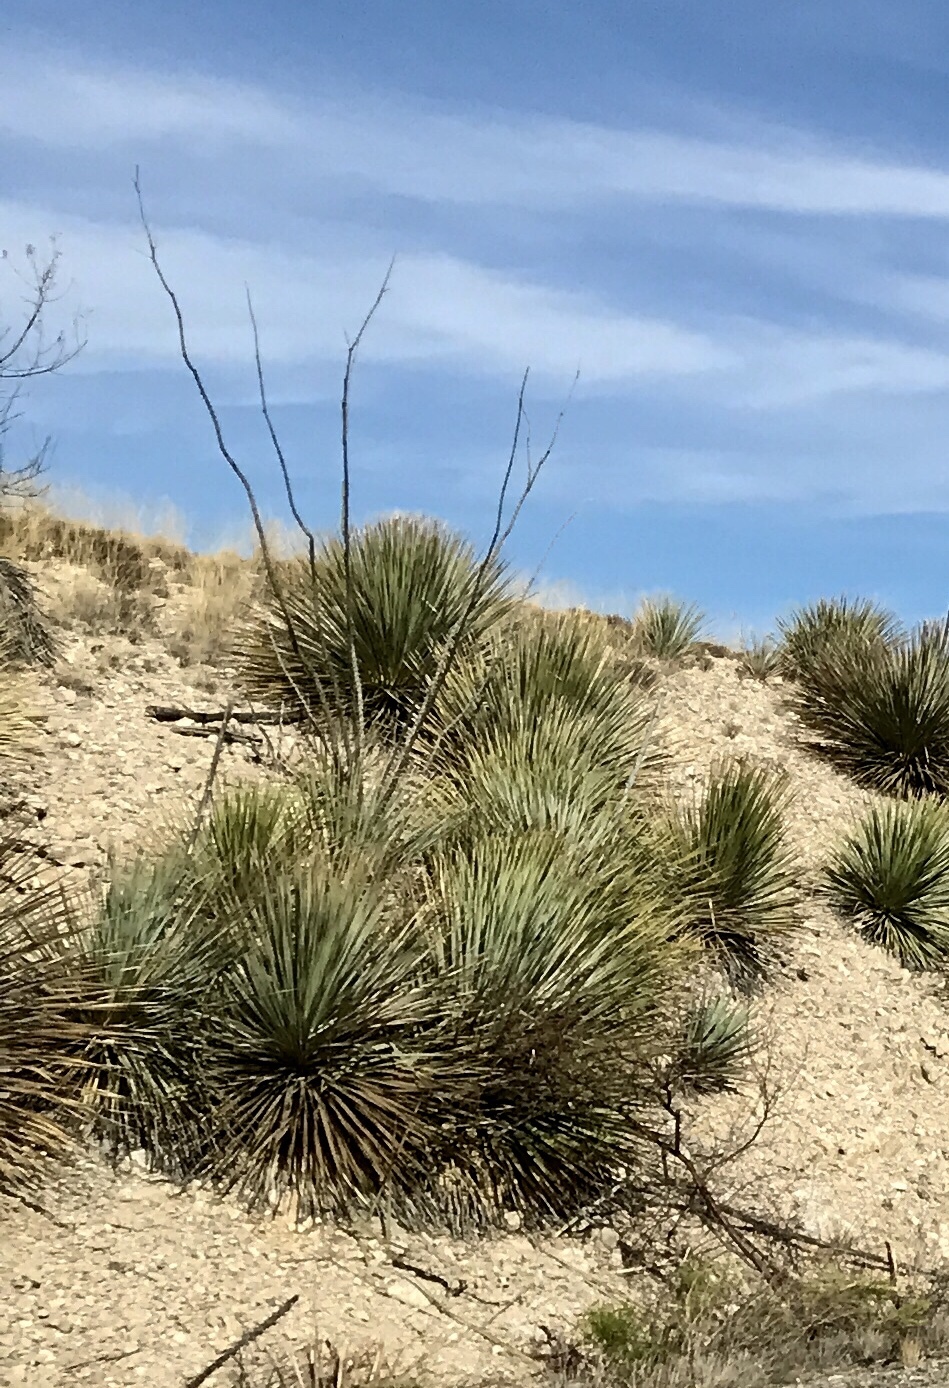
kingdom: Plantae
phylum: Tracheophyta
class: Liliopsida
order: Asparagales
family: Asparagaceae
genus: Dasylirion
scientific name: Dasylirion wheeleri
